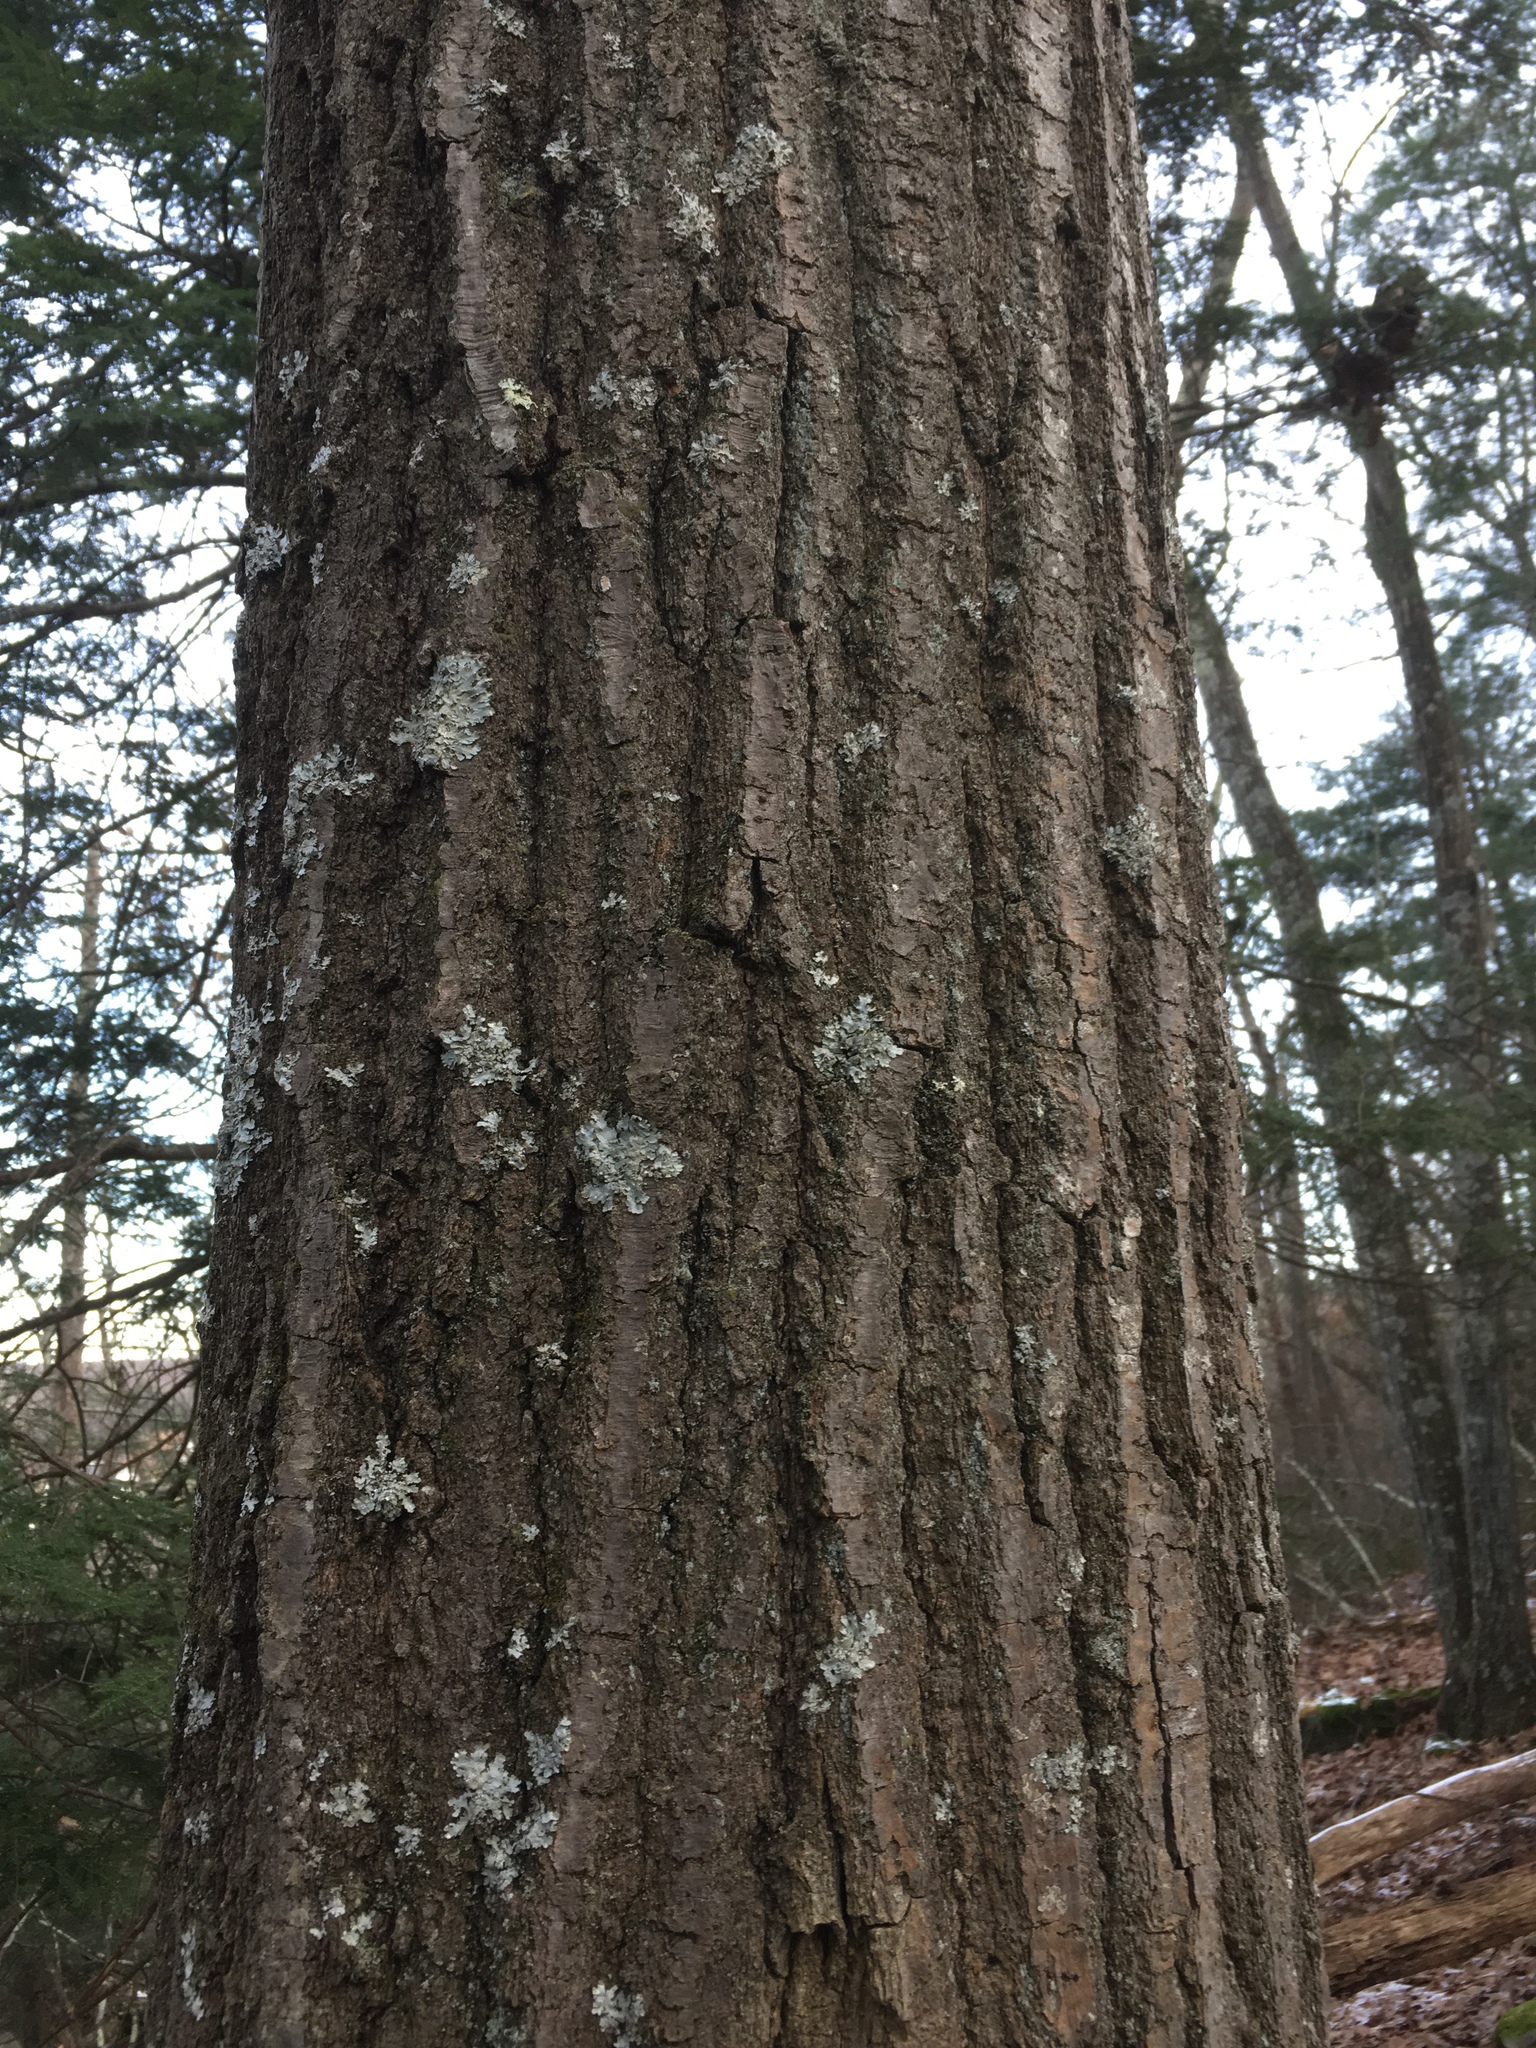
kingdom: Plantae
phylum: Tracheophyta
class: Magnoliopsida
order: Fagales
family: Fagaceae
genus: Quercus
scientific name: Quercus rubra
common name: Red oak
